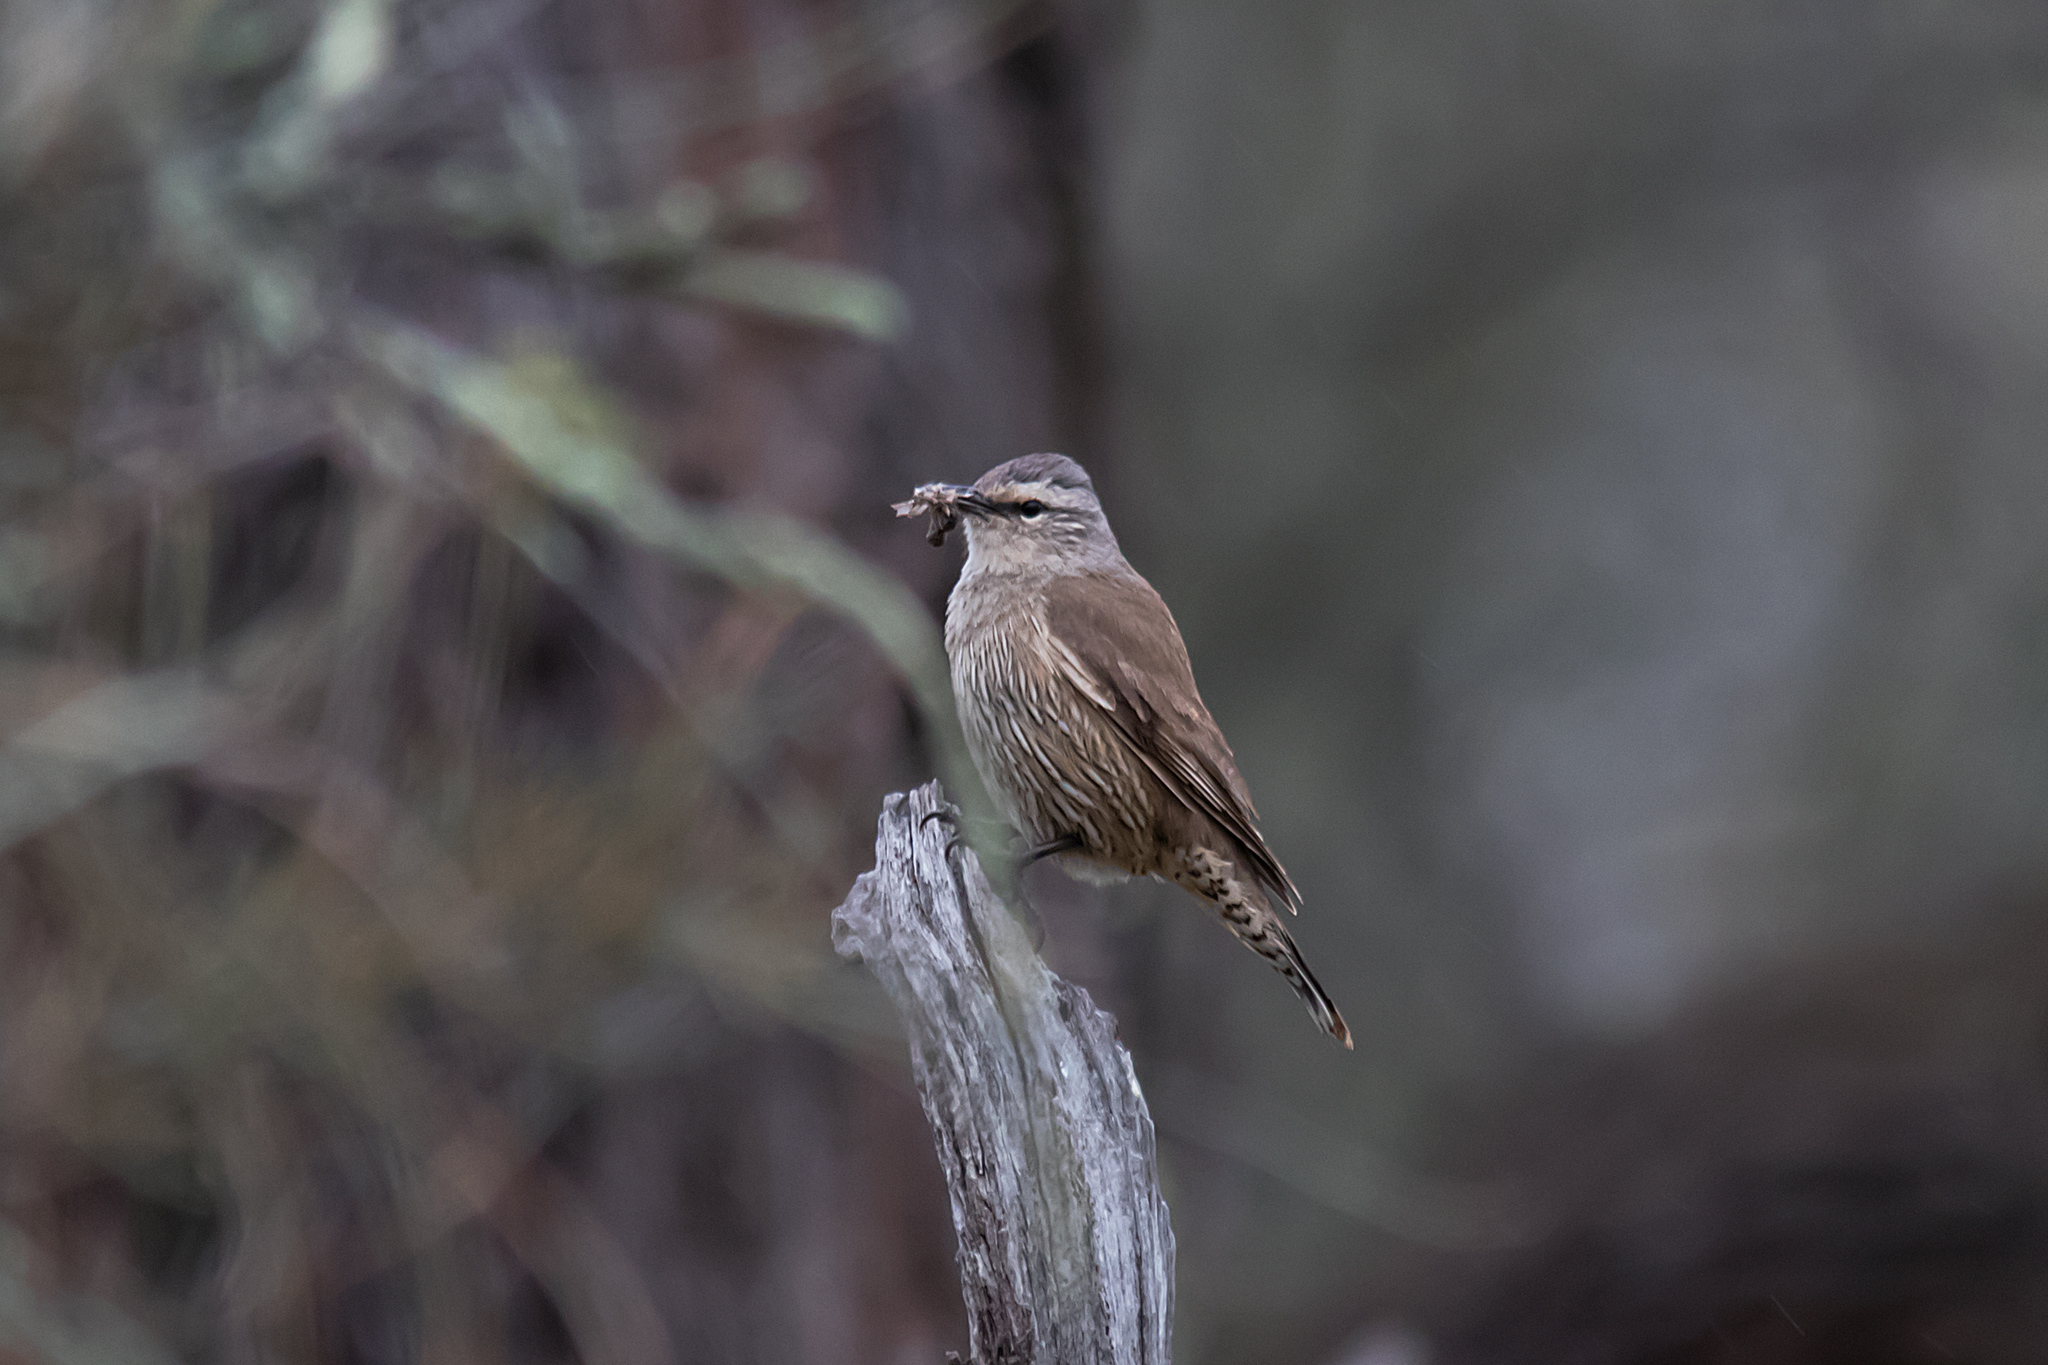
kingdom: Animalia
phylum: Chordata
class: Aves
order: Passeriformes
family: Climacteridae
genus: Climacteris
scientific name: Climacteris picumnus
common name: Brown treecreeper
